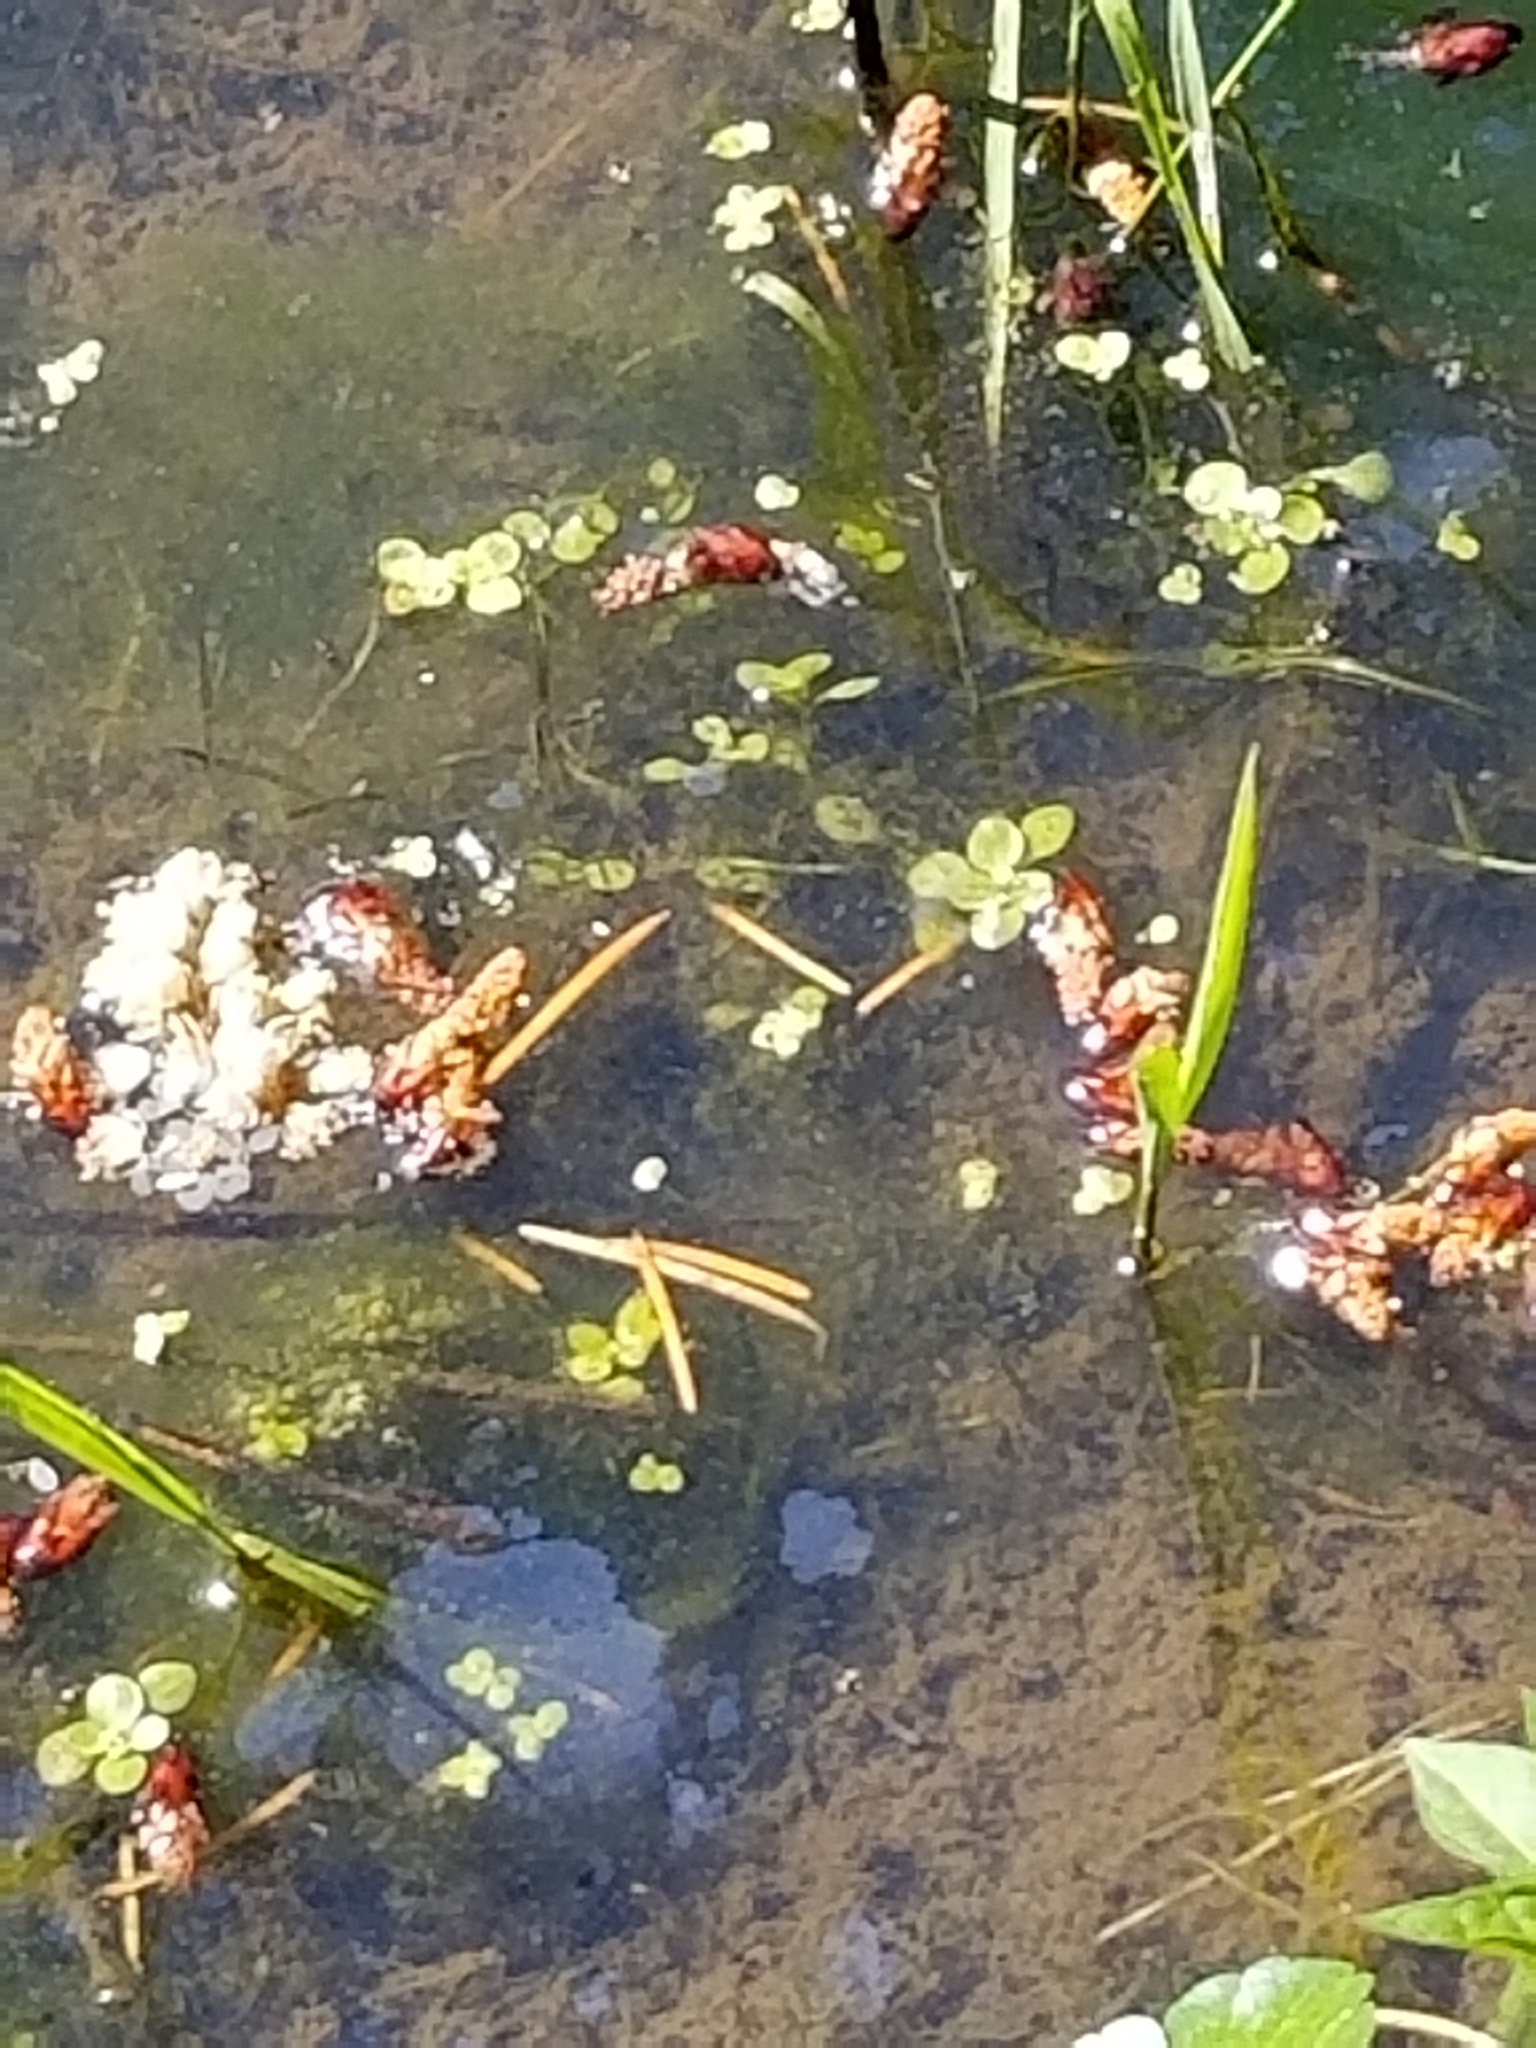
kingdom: Plantae
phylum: Tracheophyta
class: Liliopsida
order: Alismatales
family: Araceae
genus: Lemna
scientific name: Lemna minor
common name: Common duckweed
